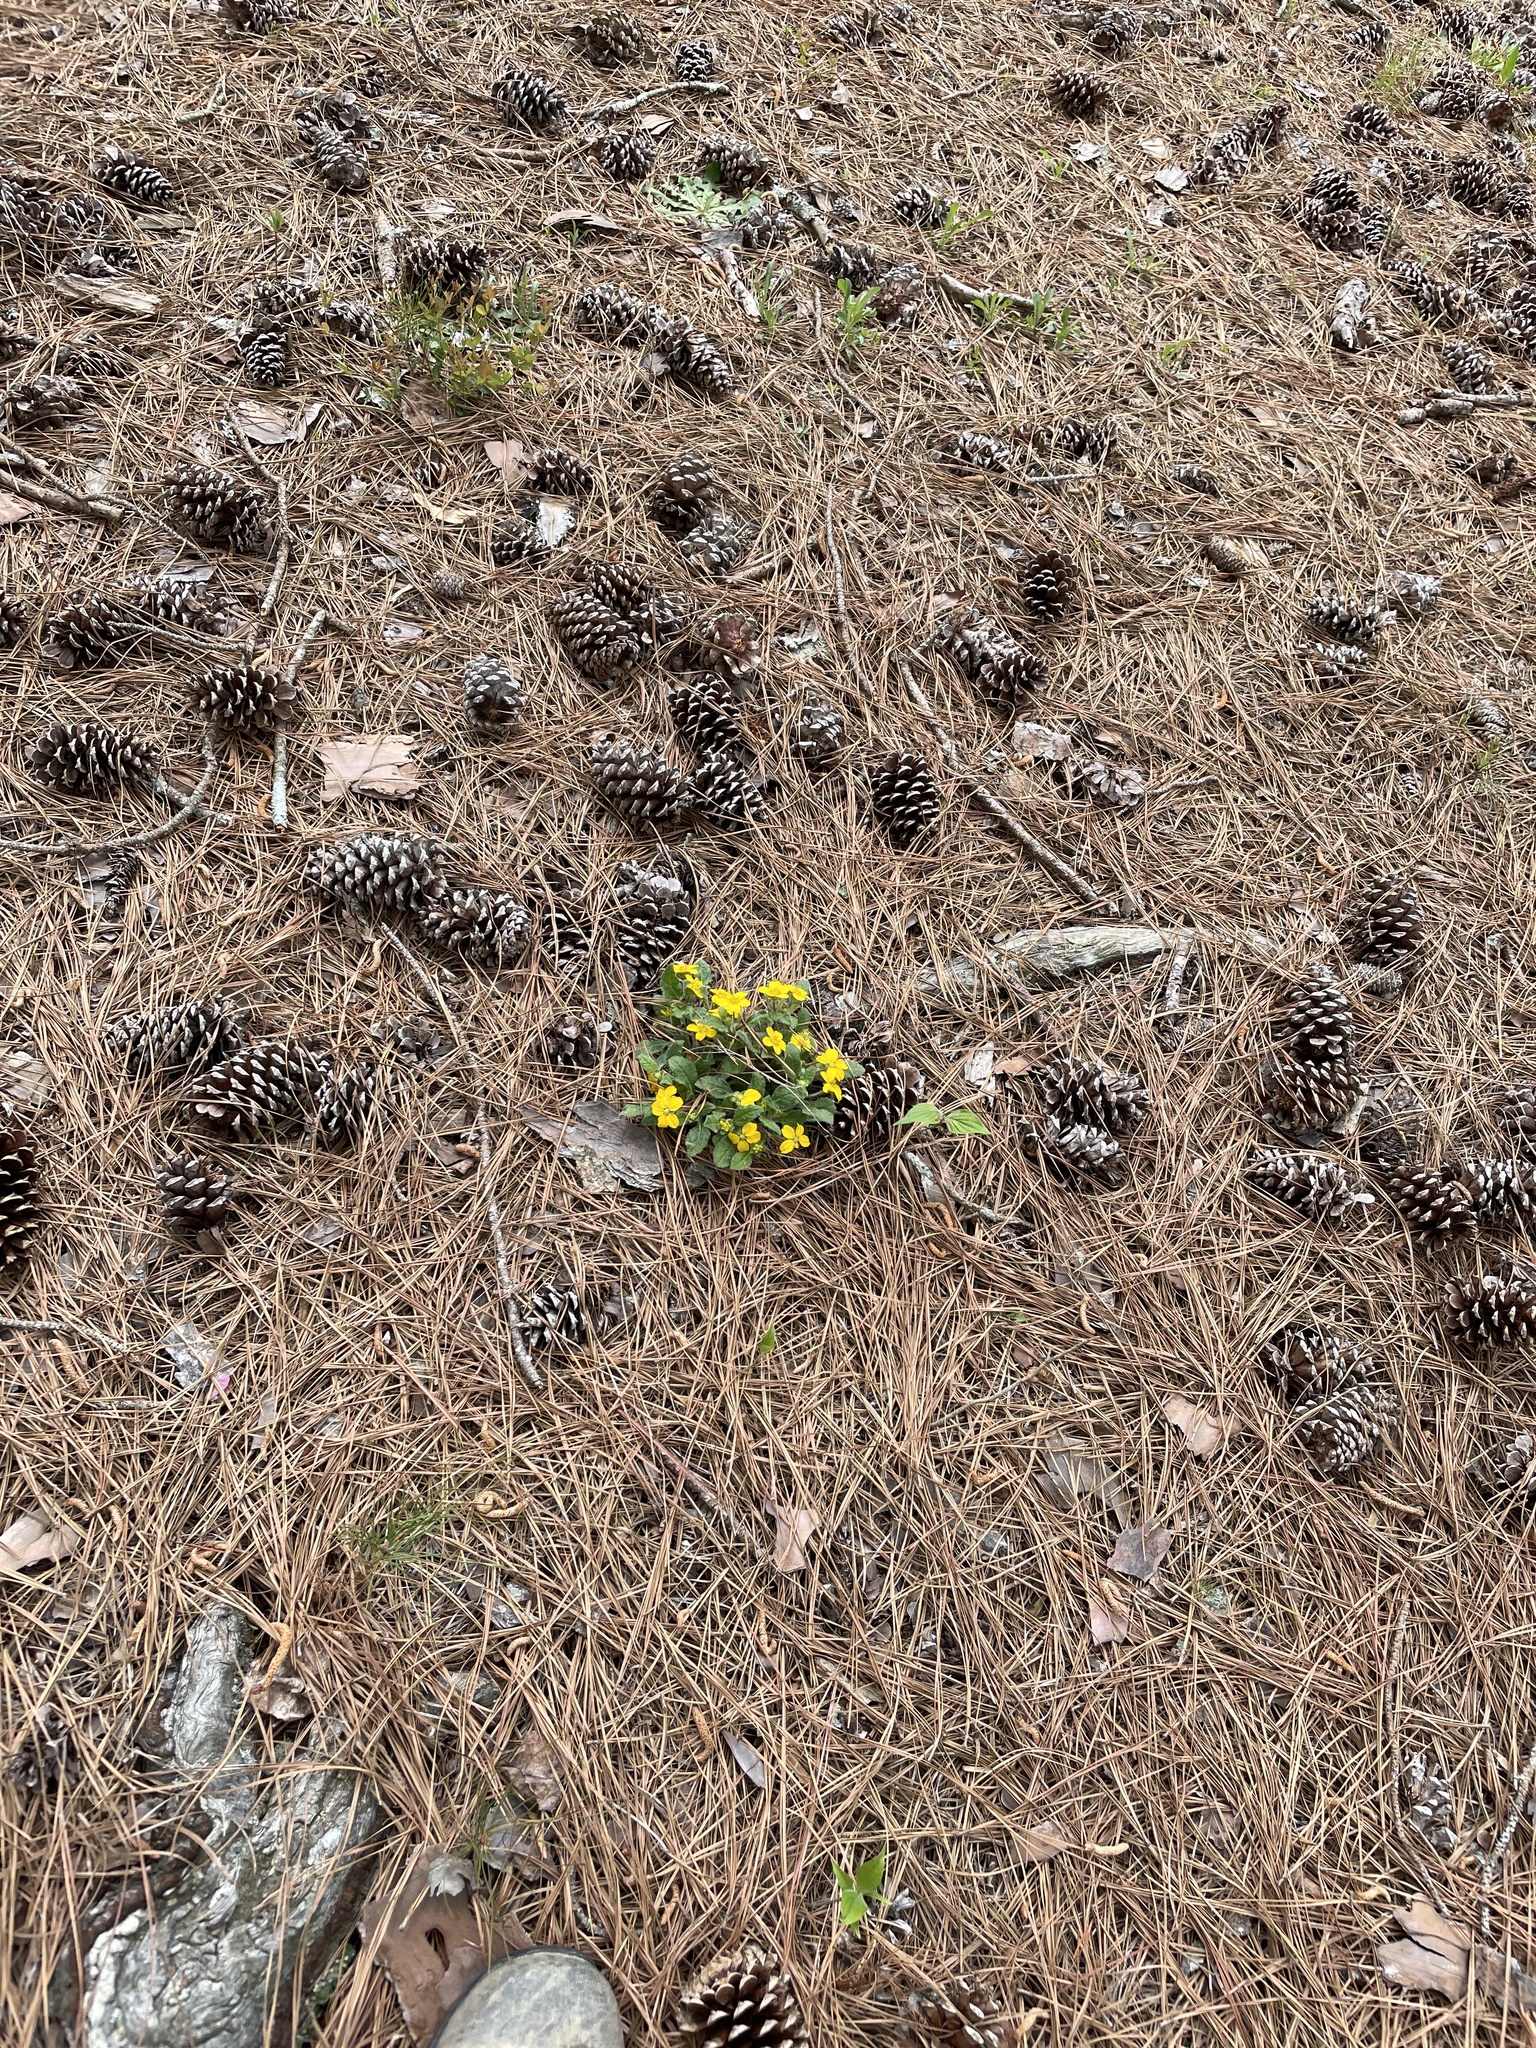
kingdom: Plantae
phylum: Tracheophyta
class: Magnoliopsida
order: Asterales
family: Asteraceae
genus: Chrysogonum
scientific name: Chrysogonum virginianum
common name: Golden-knee
